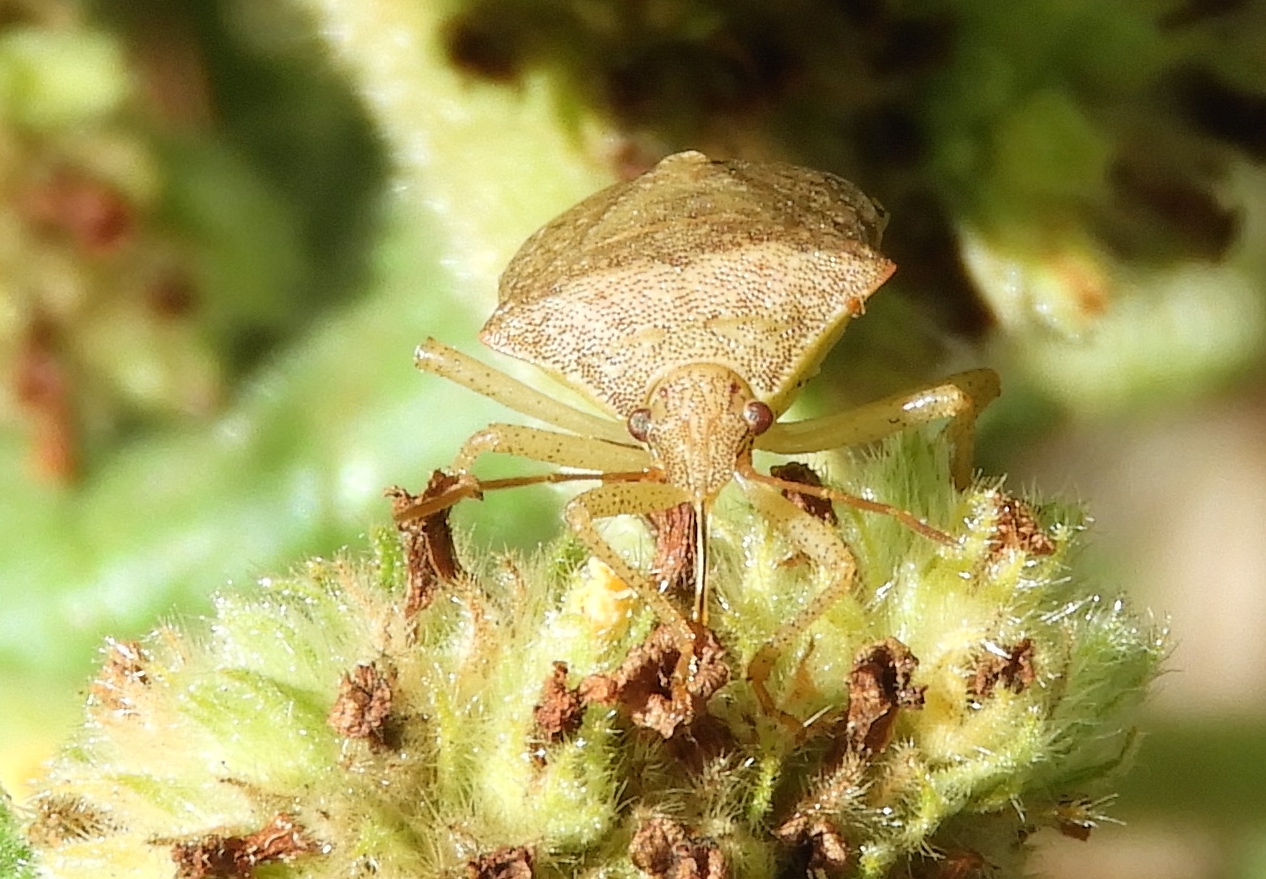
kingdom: Animalia
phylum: Arthropoda
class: Insecta
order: Hemiptera
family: Pentatomidae
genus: Euschistus
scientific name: Euschistus
